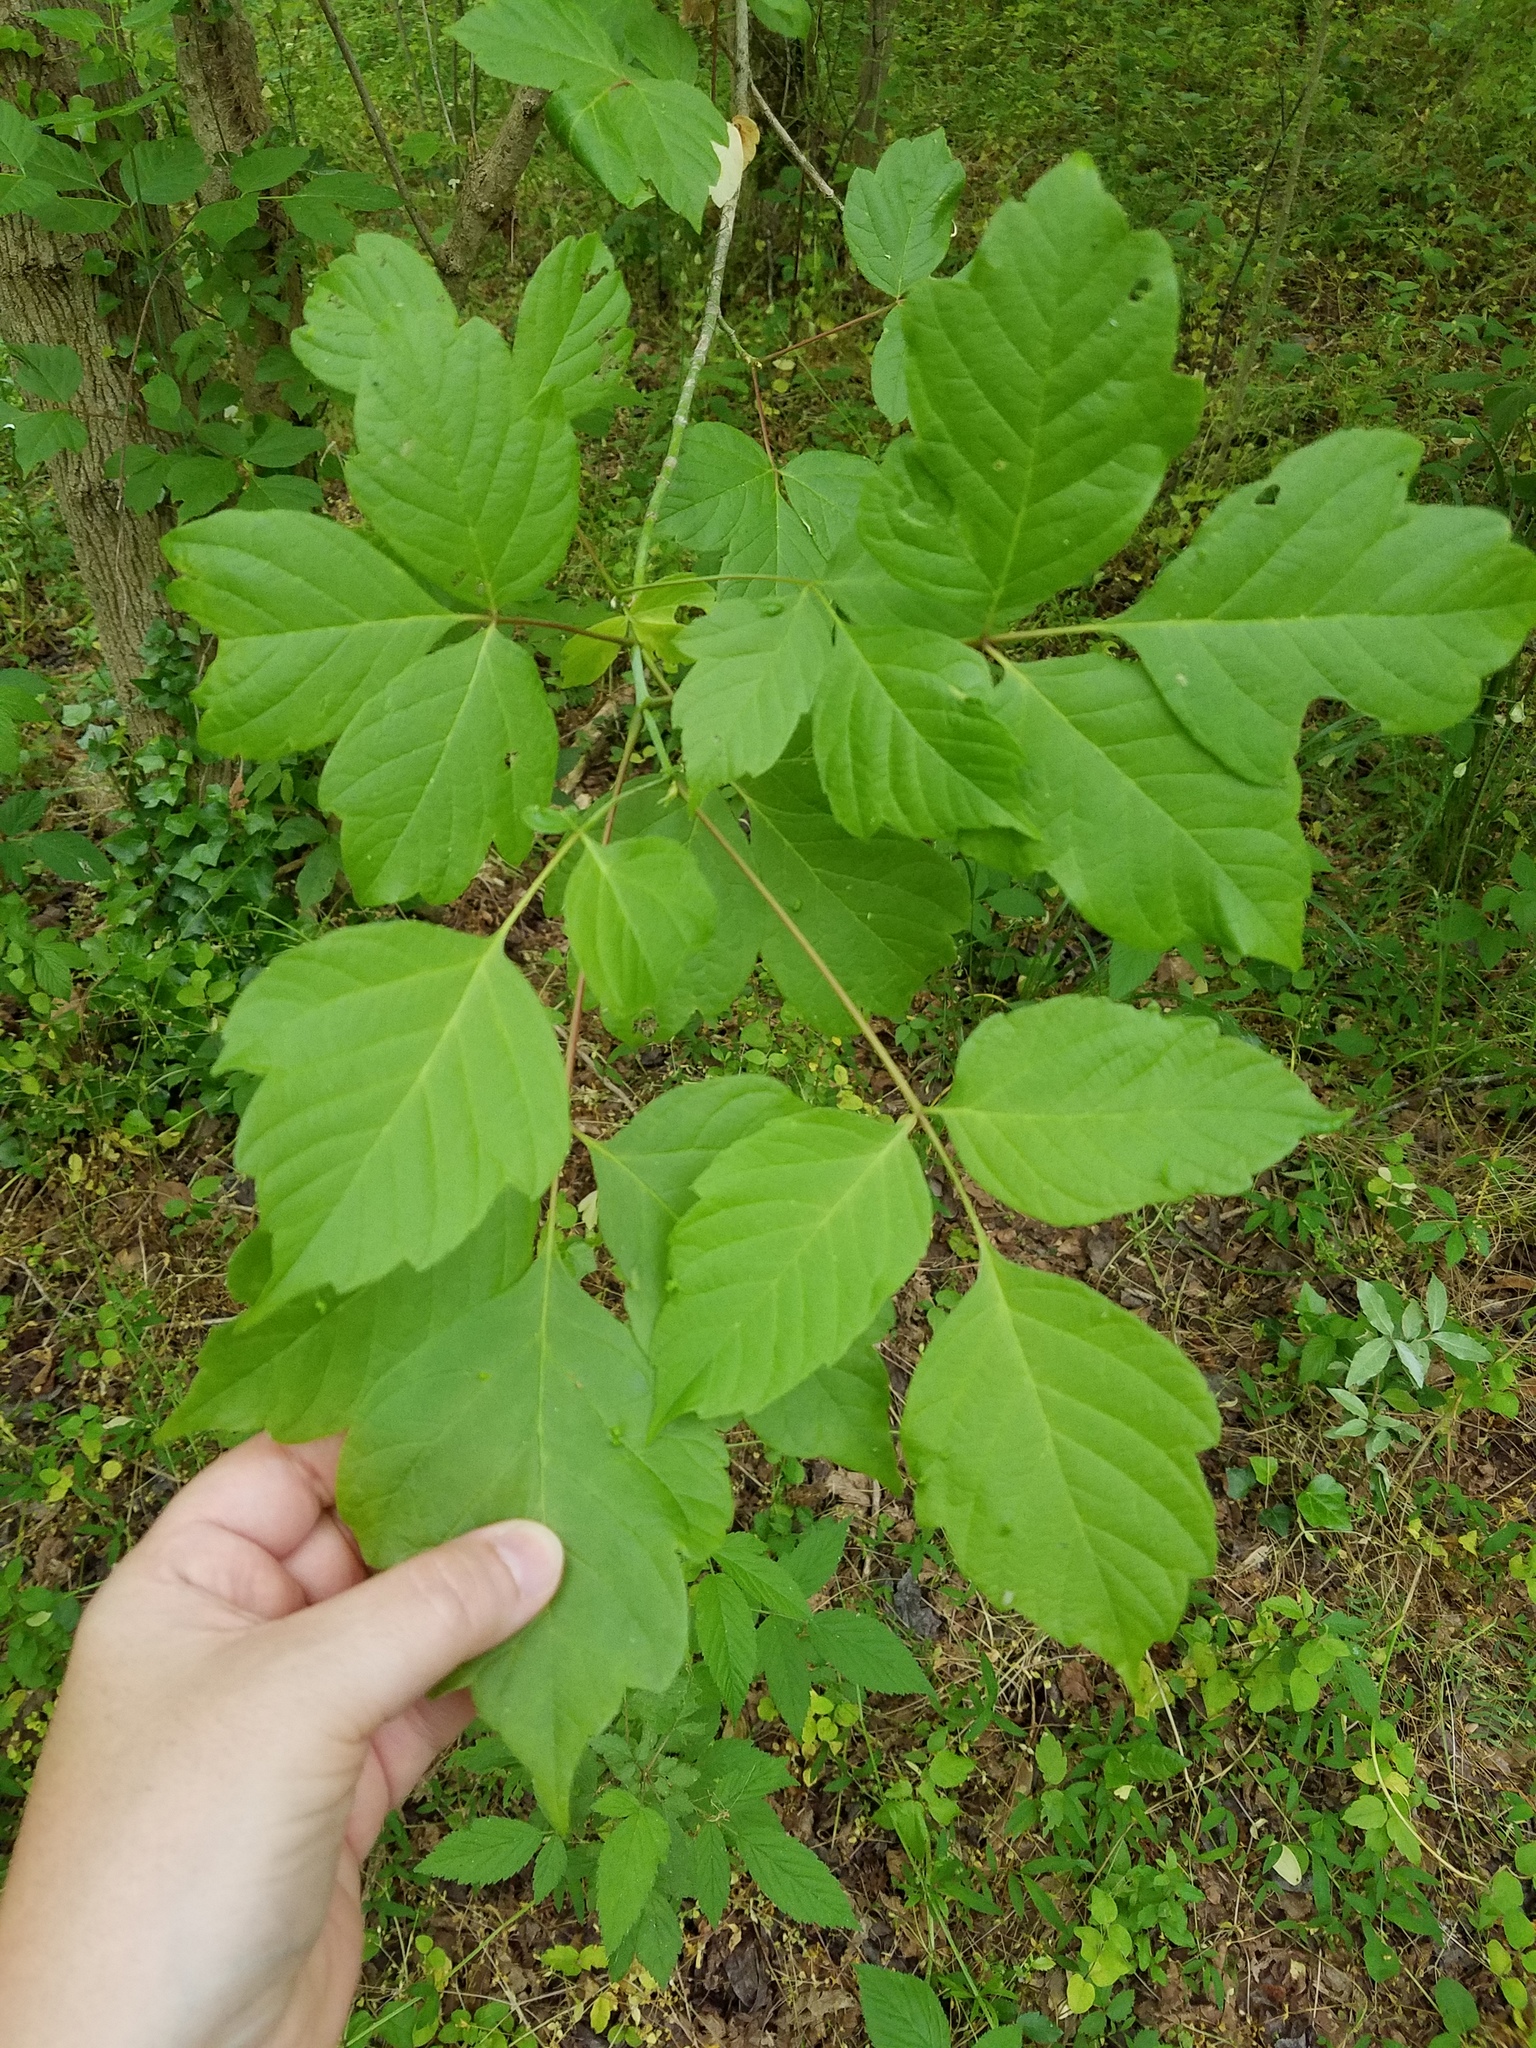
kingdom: Plantae
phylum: Tracheophyta
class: Magnoliopsida
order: Sapindales
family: Sapindaceae
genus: Acer
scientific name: Acer negundo
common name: Ashleaf maple
